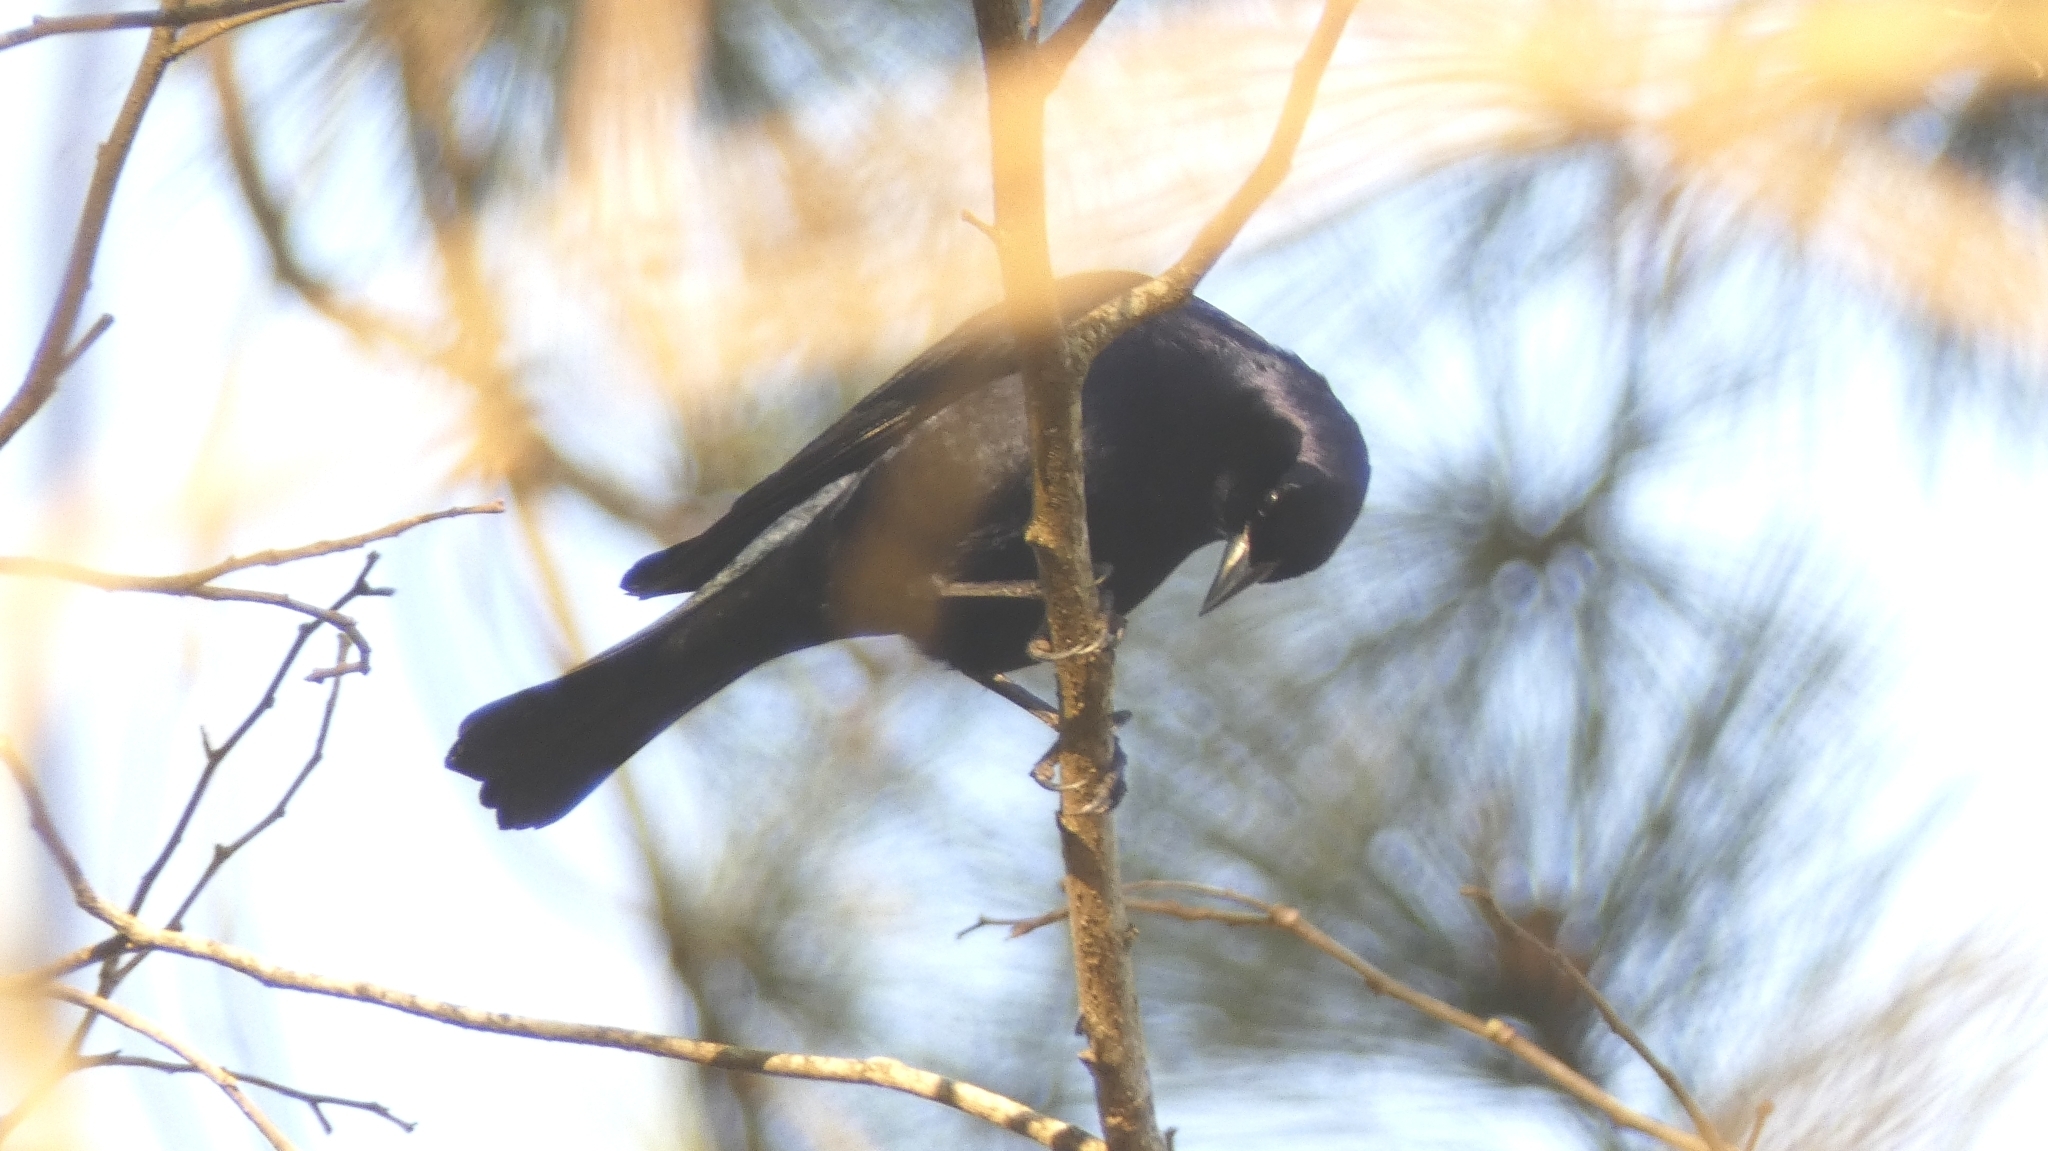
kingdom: Animalia
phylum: Chordata
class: Aves
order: Passeriformes
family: Icteridae
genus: Molothrus
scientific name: Molothrus bonariensis
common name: Shiny cowbird
